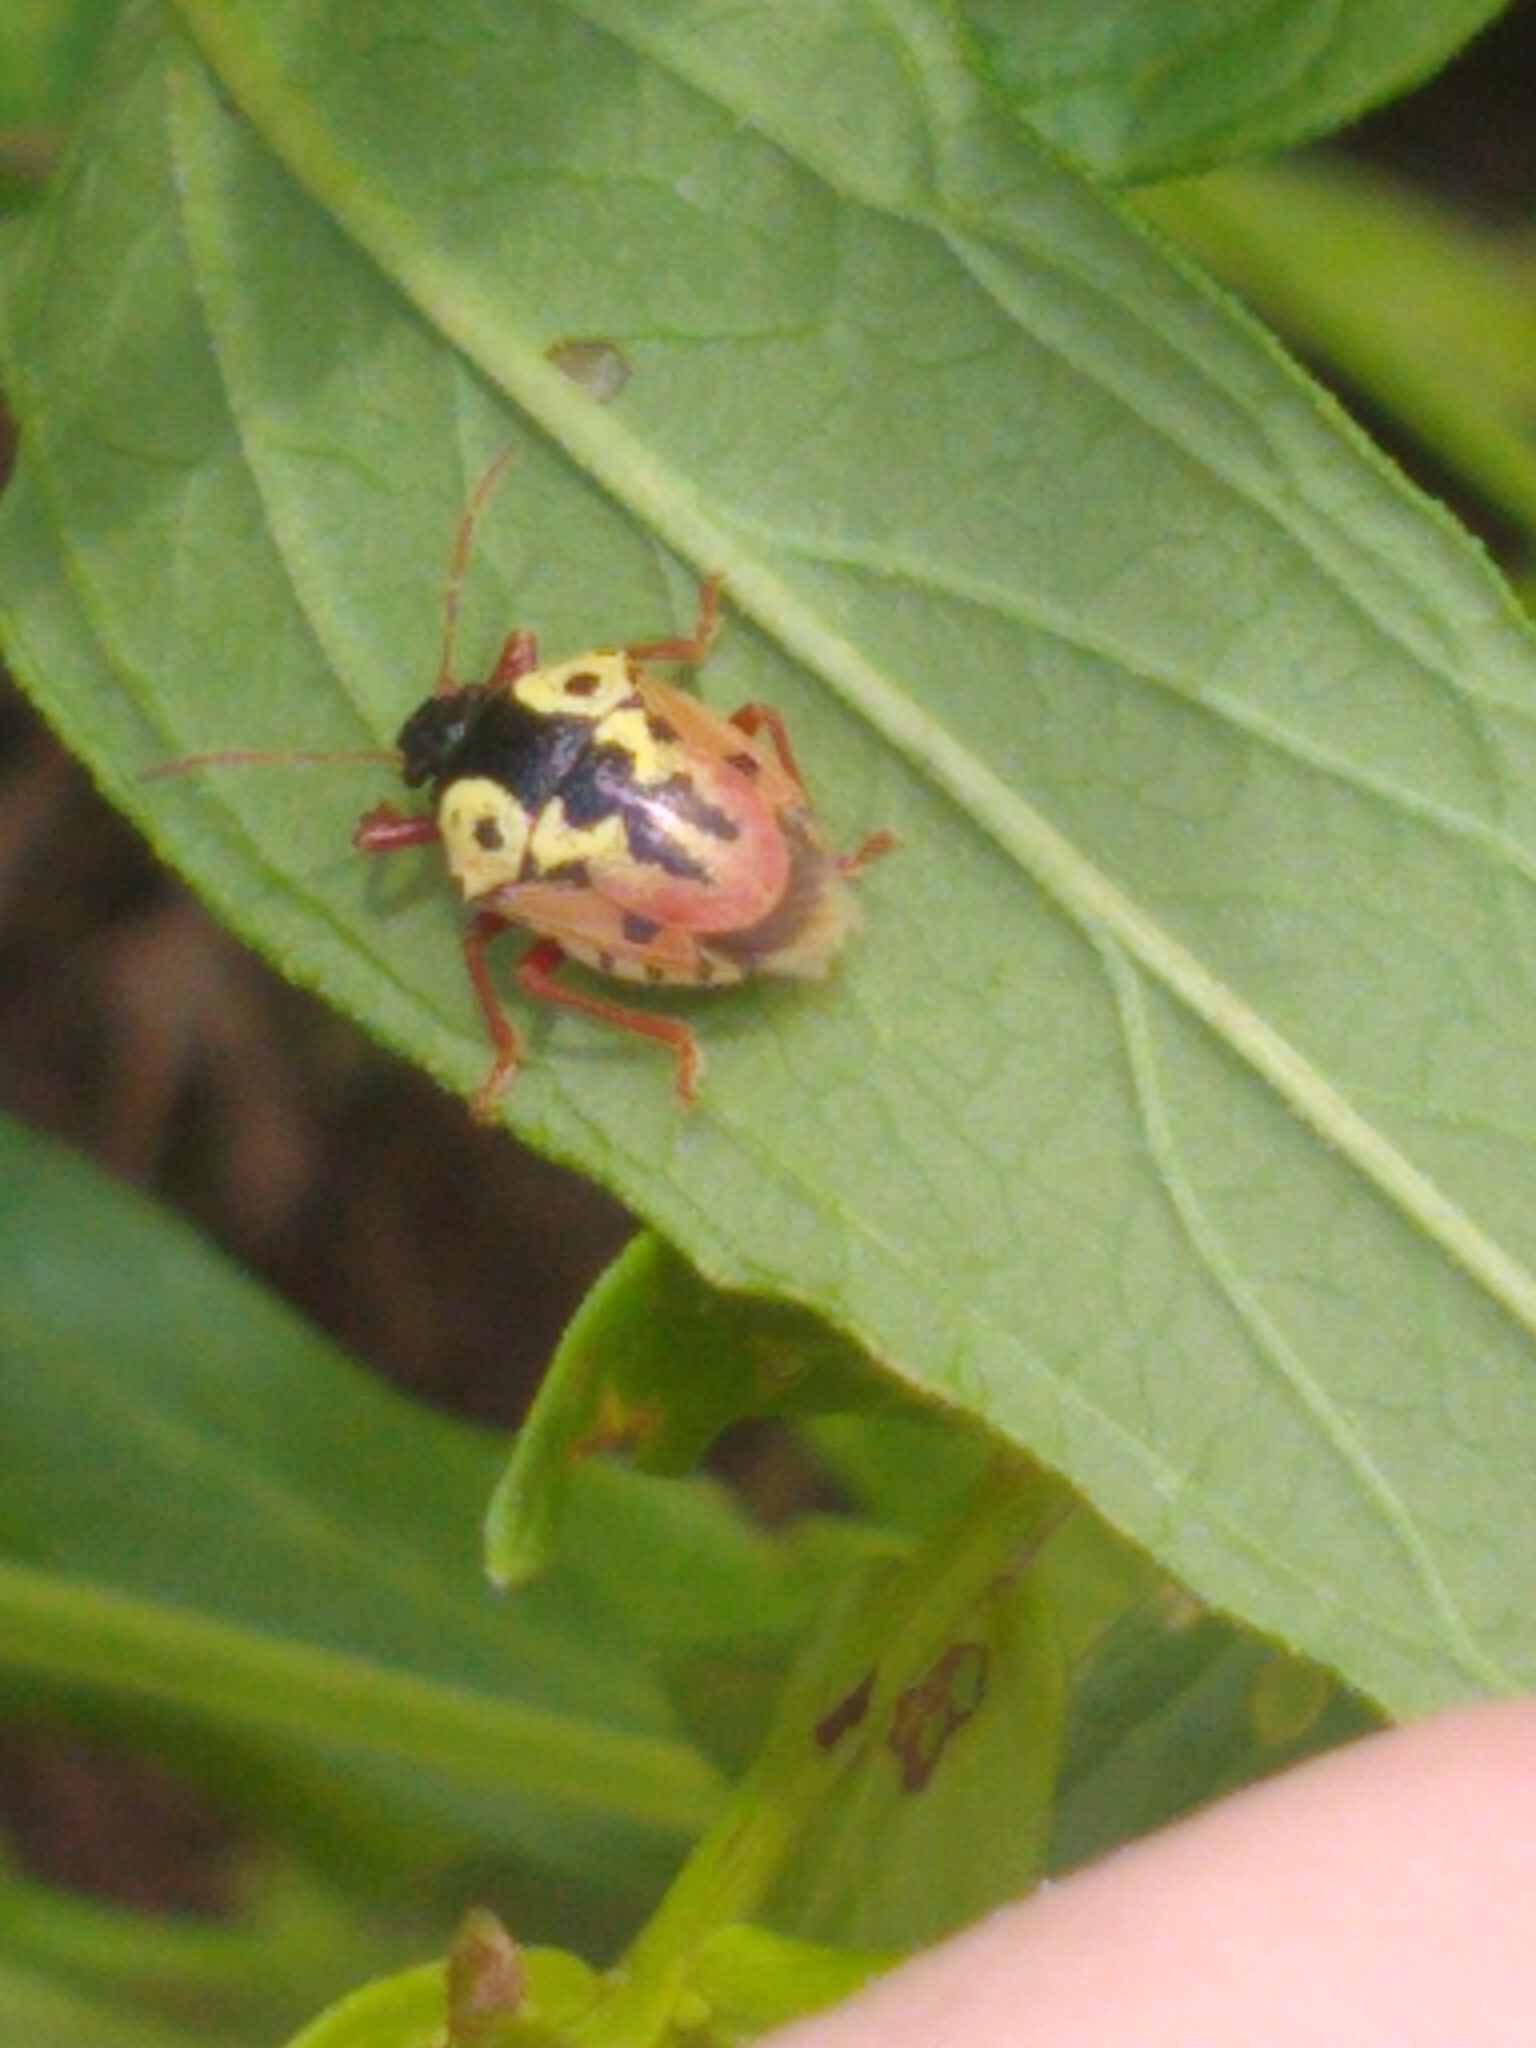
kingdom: Animalia
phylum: Arthropoda
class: Insecta
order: Hemiptera
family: Pentatomidae
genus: Stiretrus
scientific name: Stiretrus anchorago
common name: Anchor stink bug
